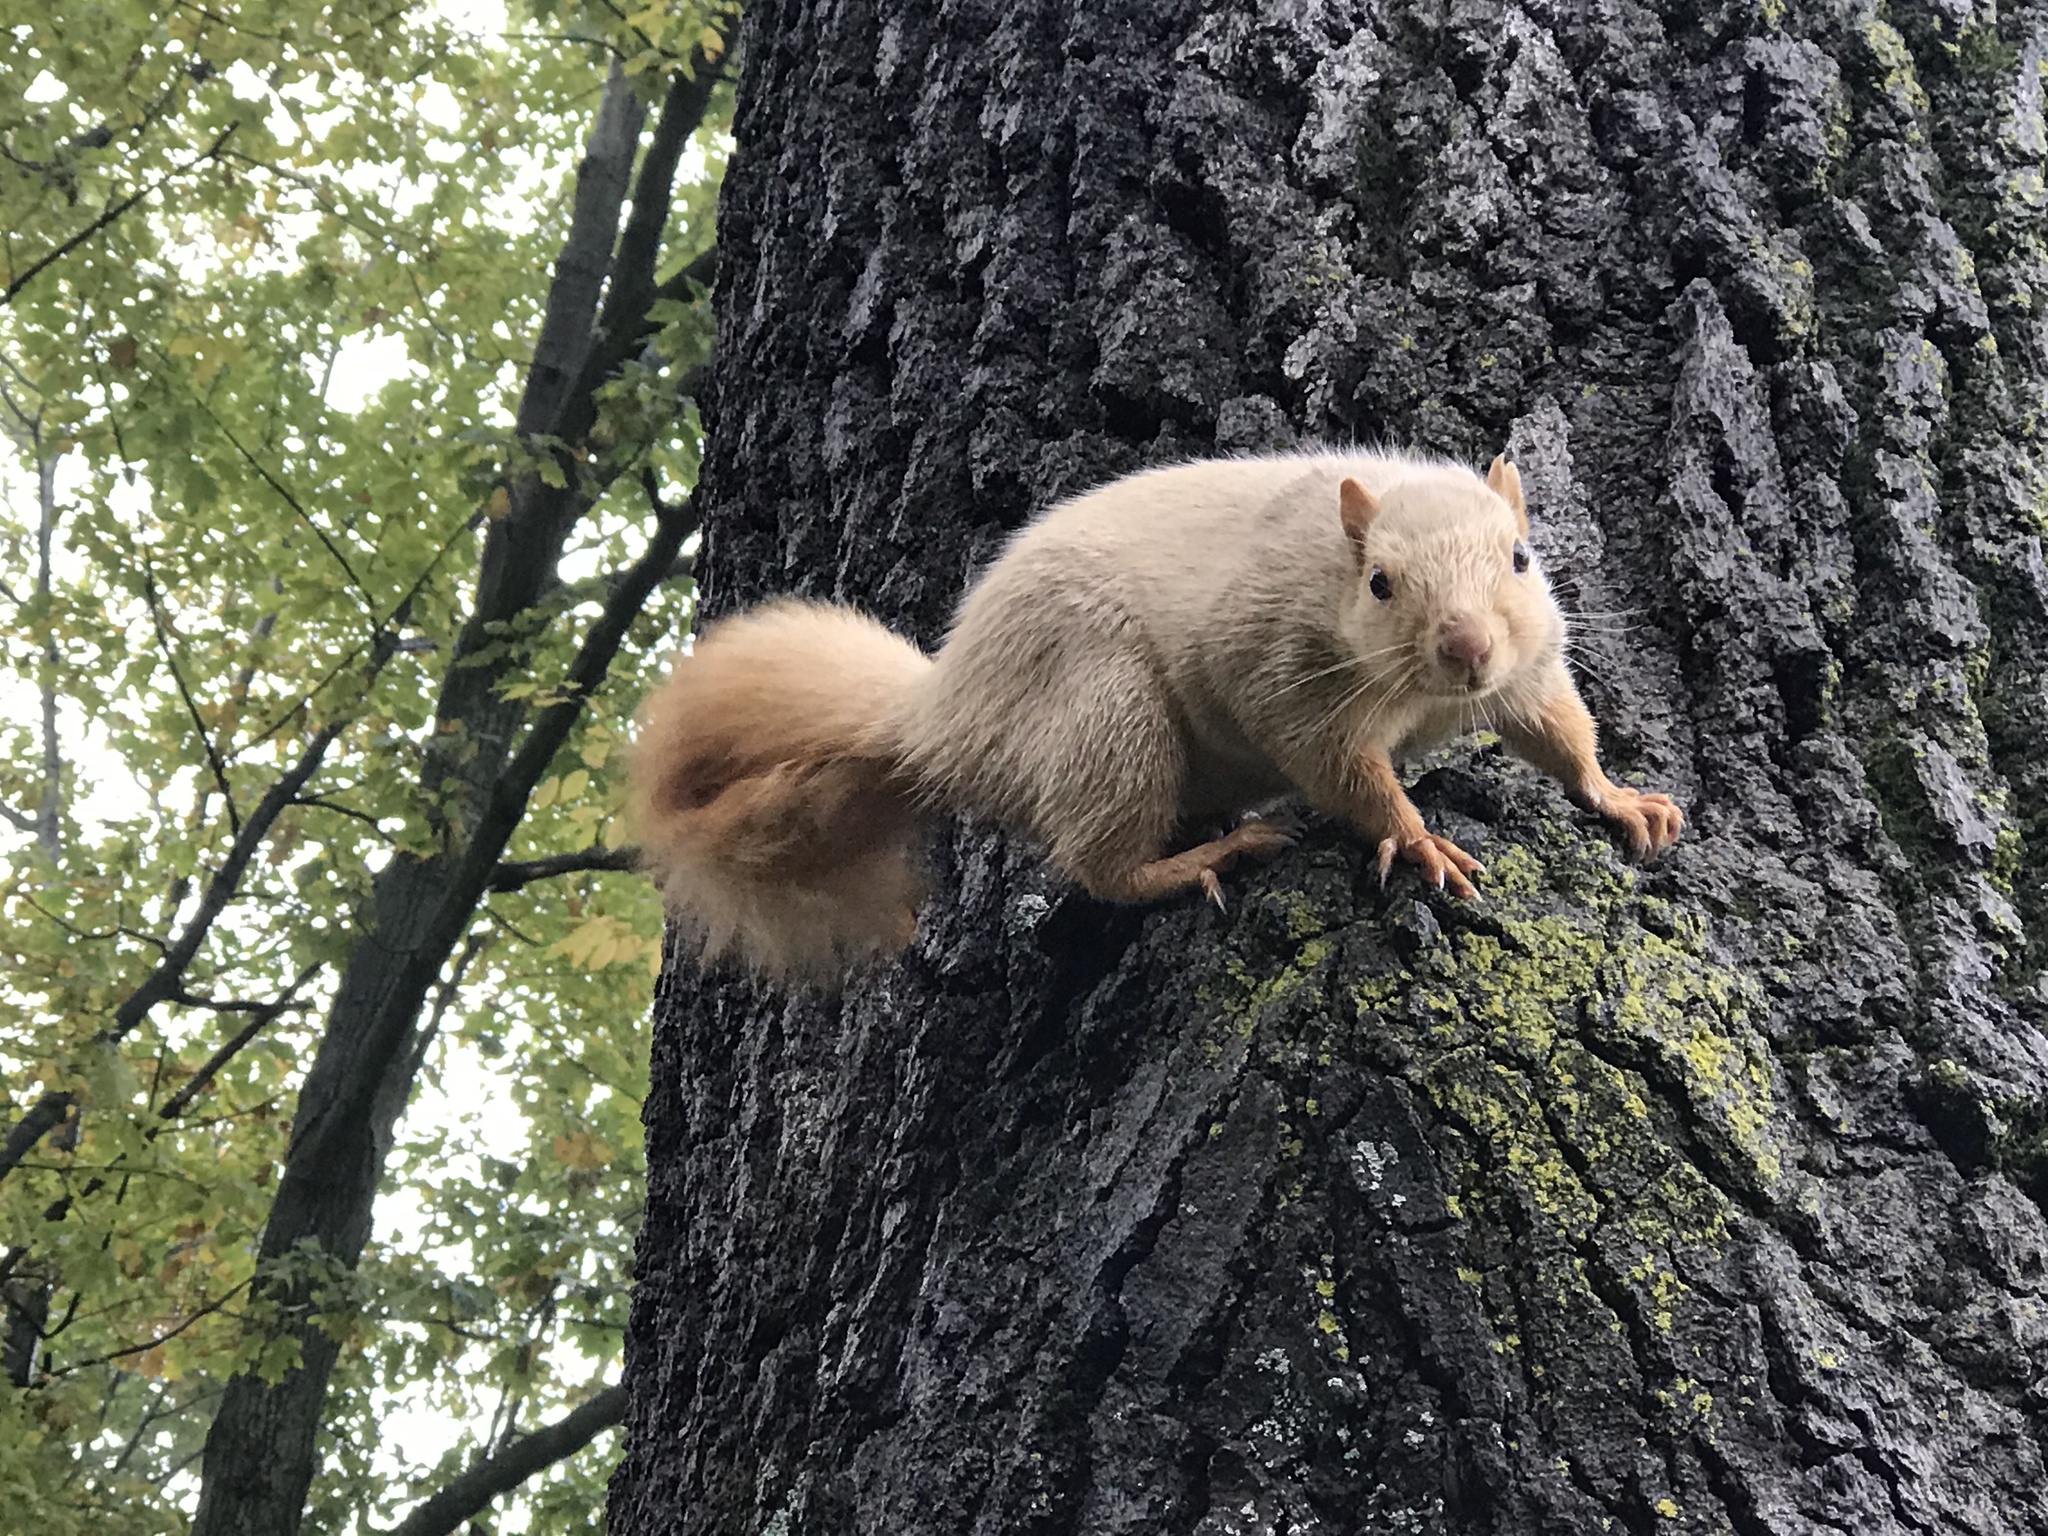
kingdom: Animalia
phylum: Chordata
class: Mammalia
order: Rodentia
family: Sciuridae
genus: Sciurus
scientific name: Sciurus niger
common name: Fox squirrel
